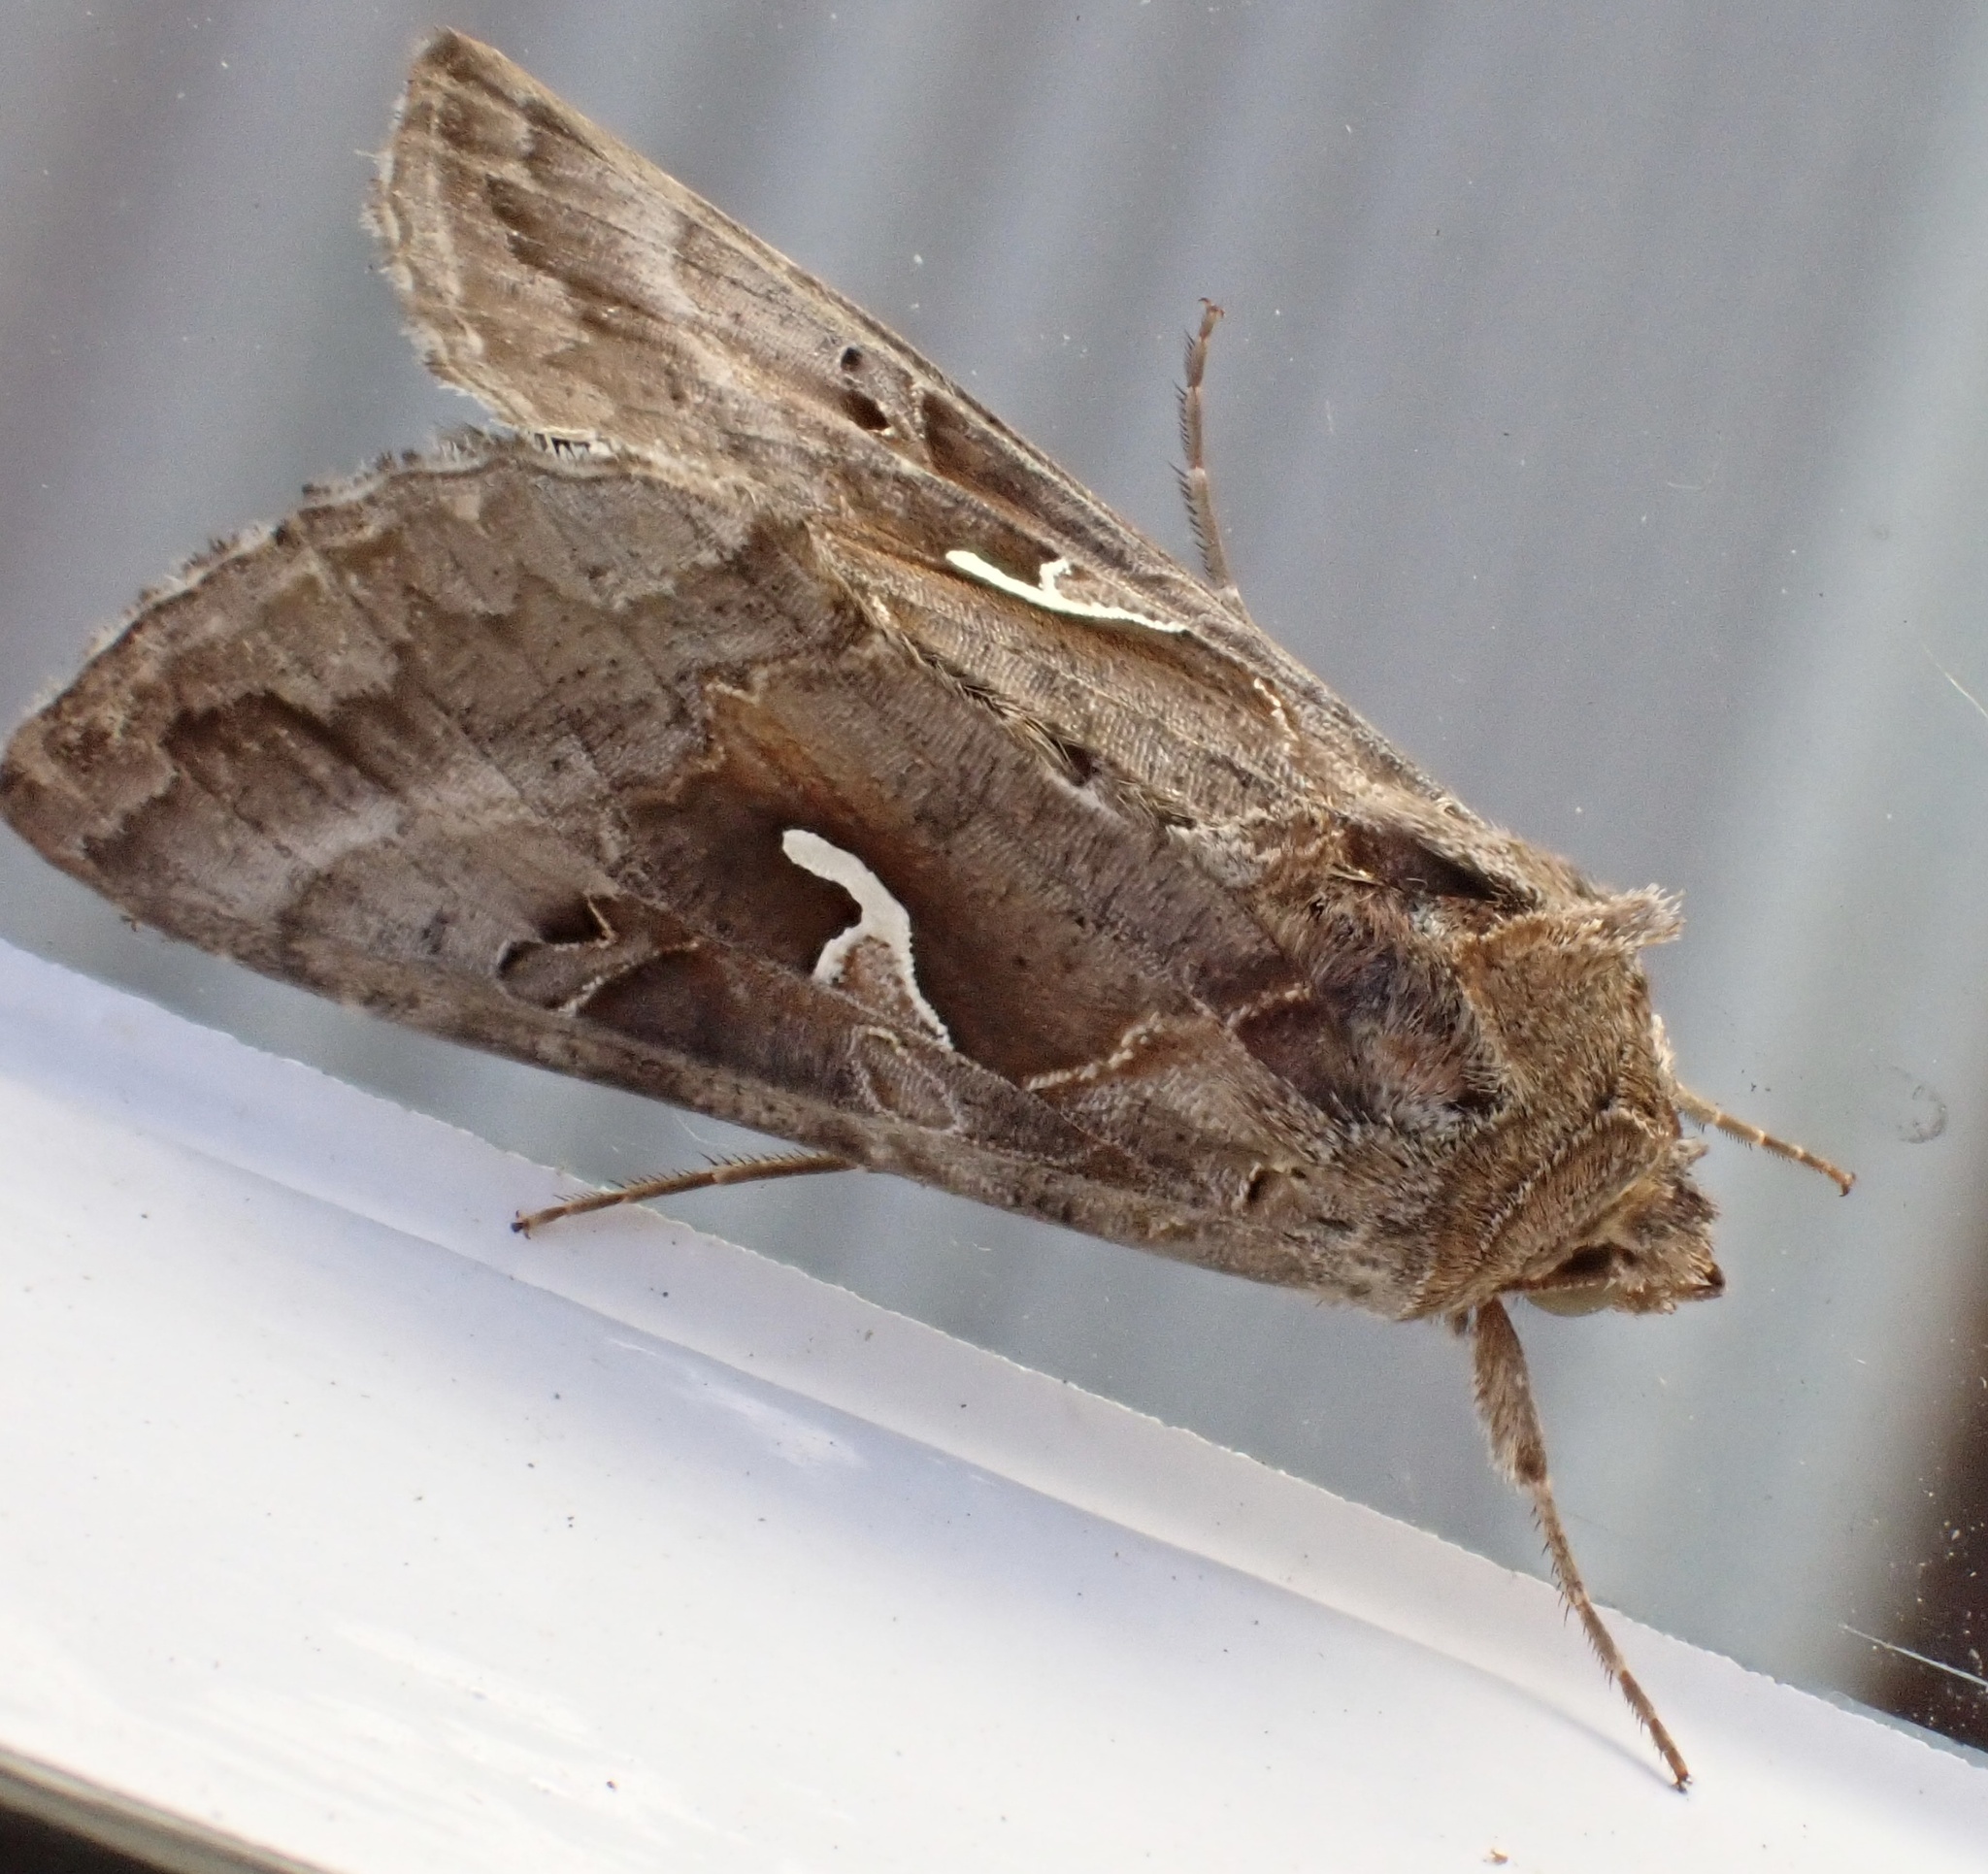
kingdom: Animalia
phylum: Arthropoda
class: Insecta
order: Lepidoptera
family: Noctuidae
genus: Autographa
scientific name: Autographa gamma
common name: Silver y
